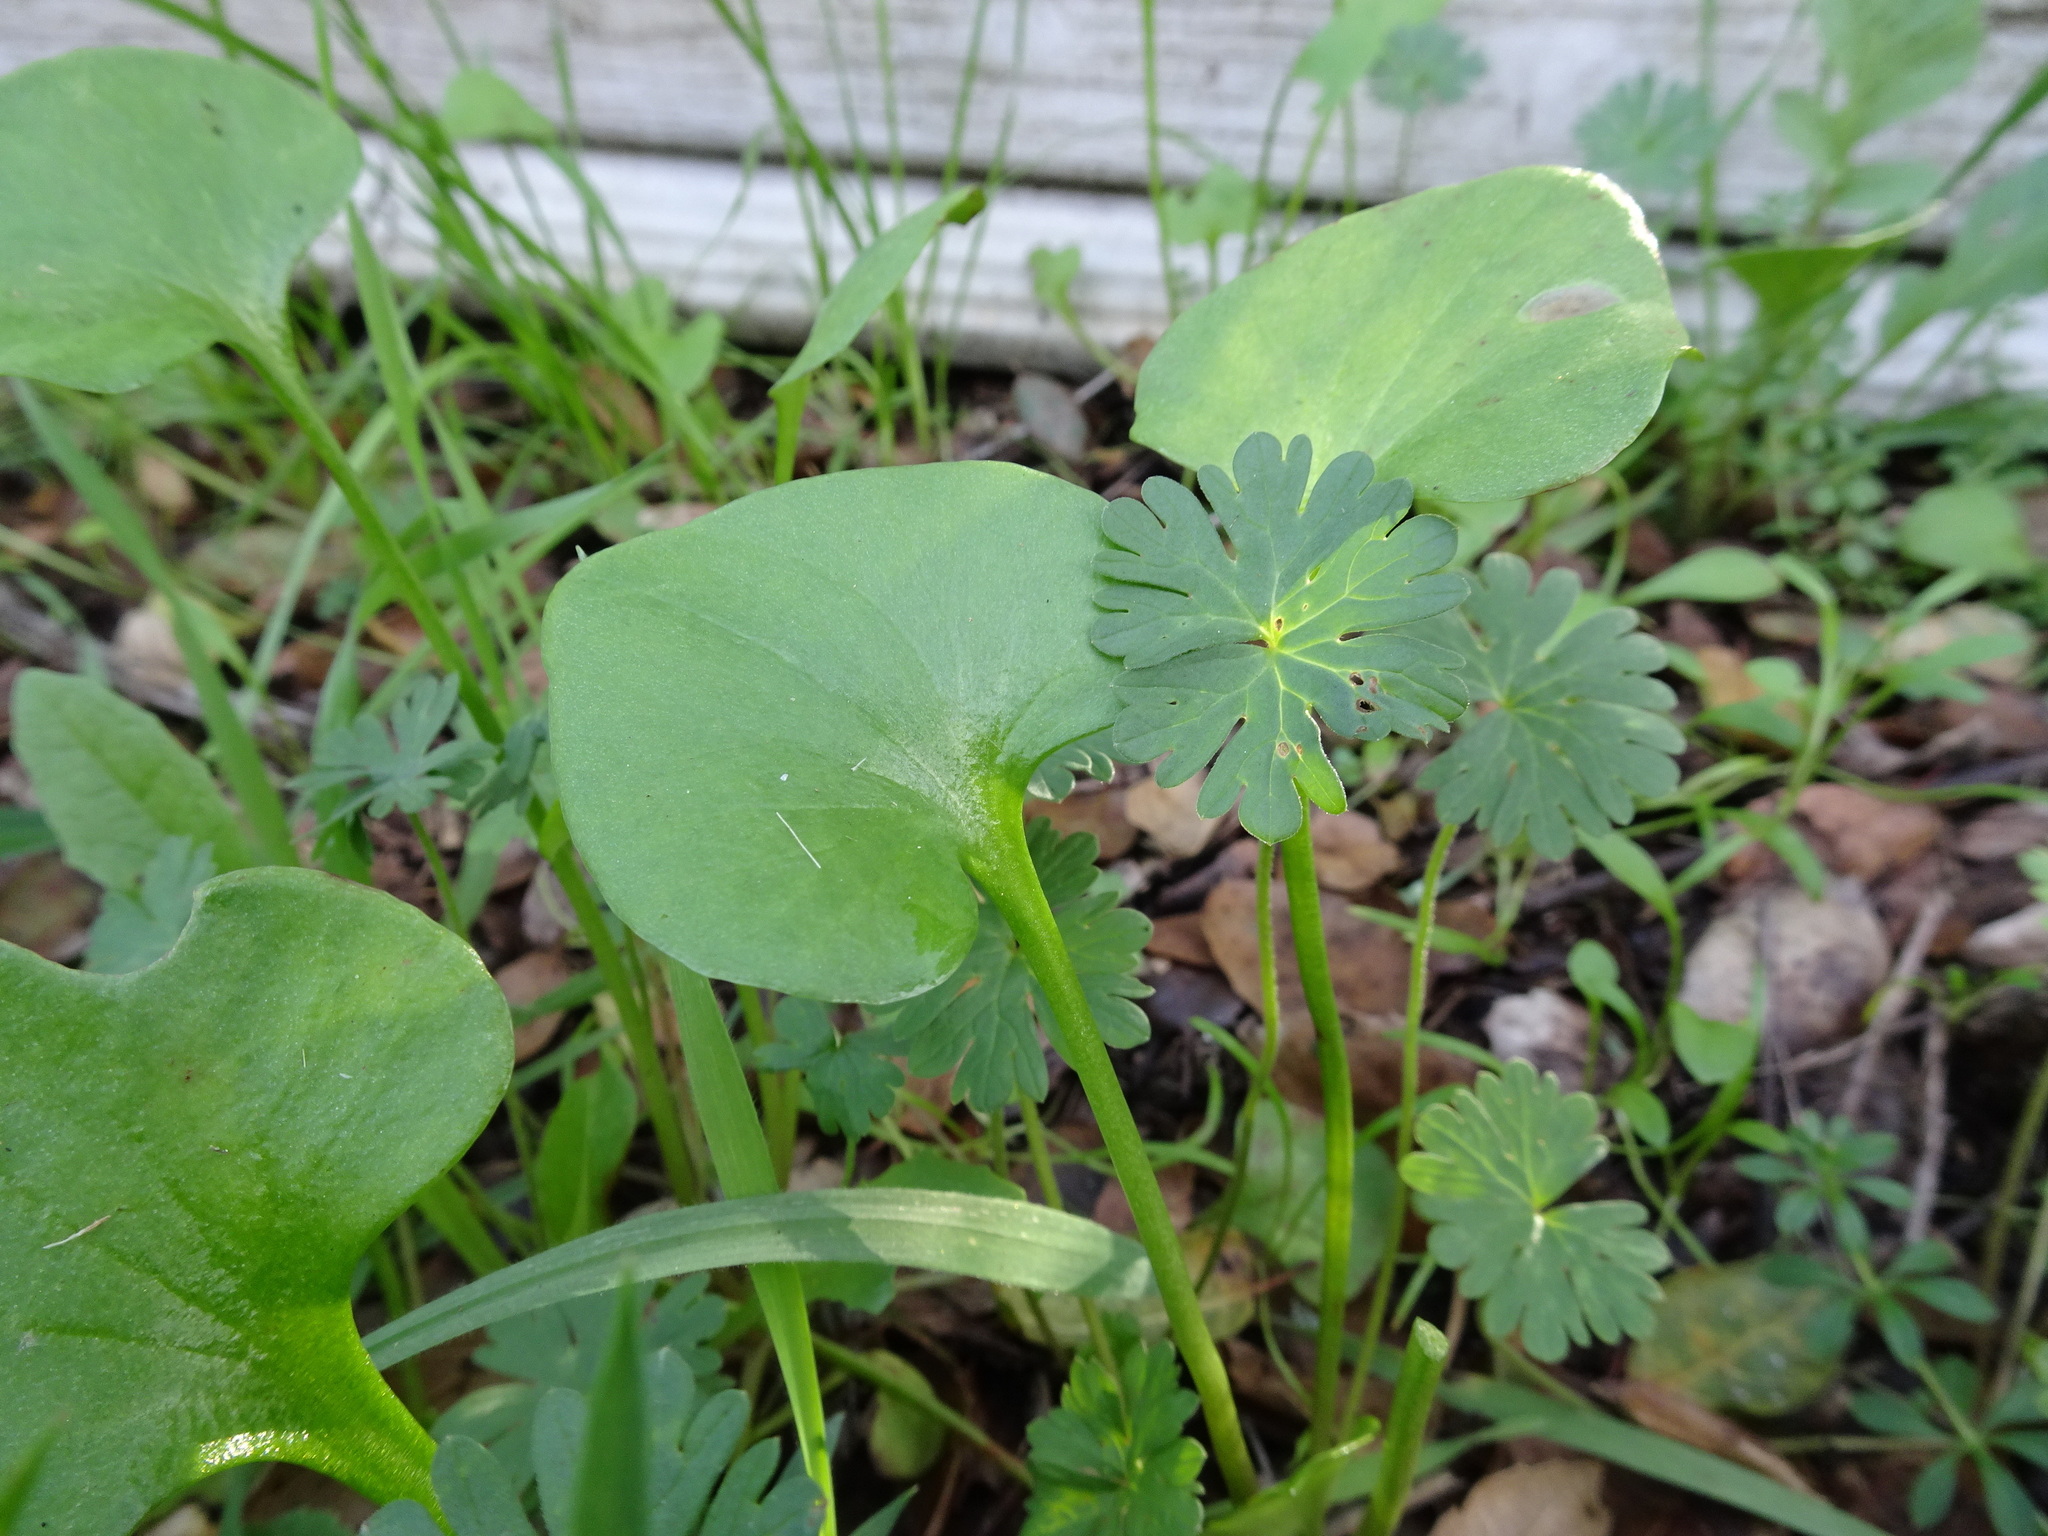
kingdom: Plantae
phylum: Tracheophyta
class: Magnoliopsida
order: Caryophyllales
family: Montiaceae
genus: Claytonia
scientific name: Claytonia perfoliata
